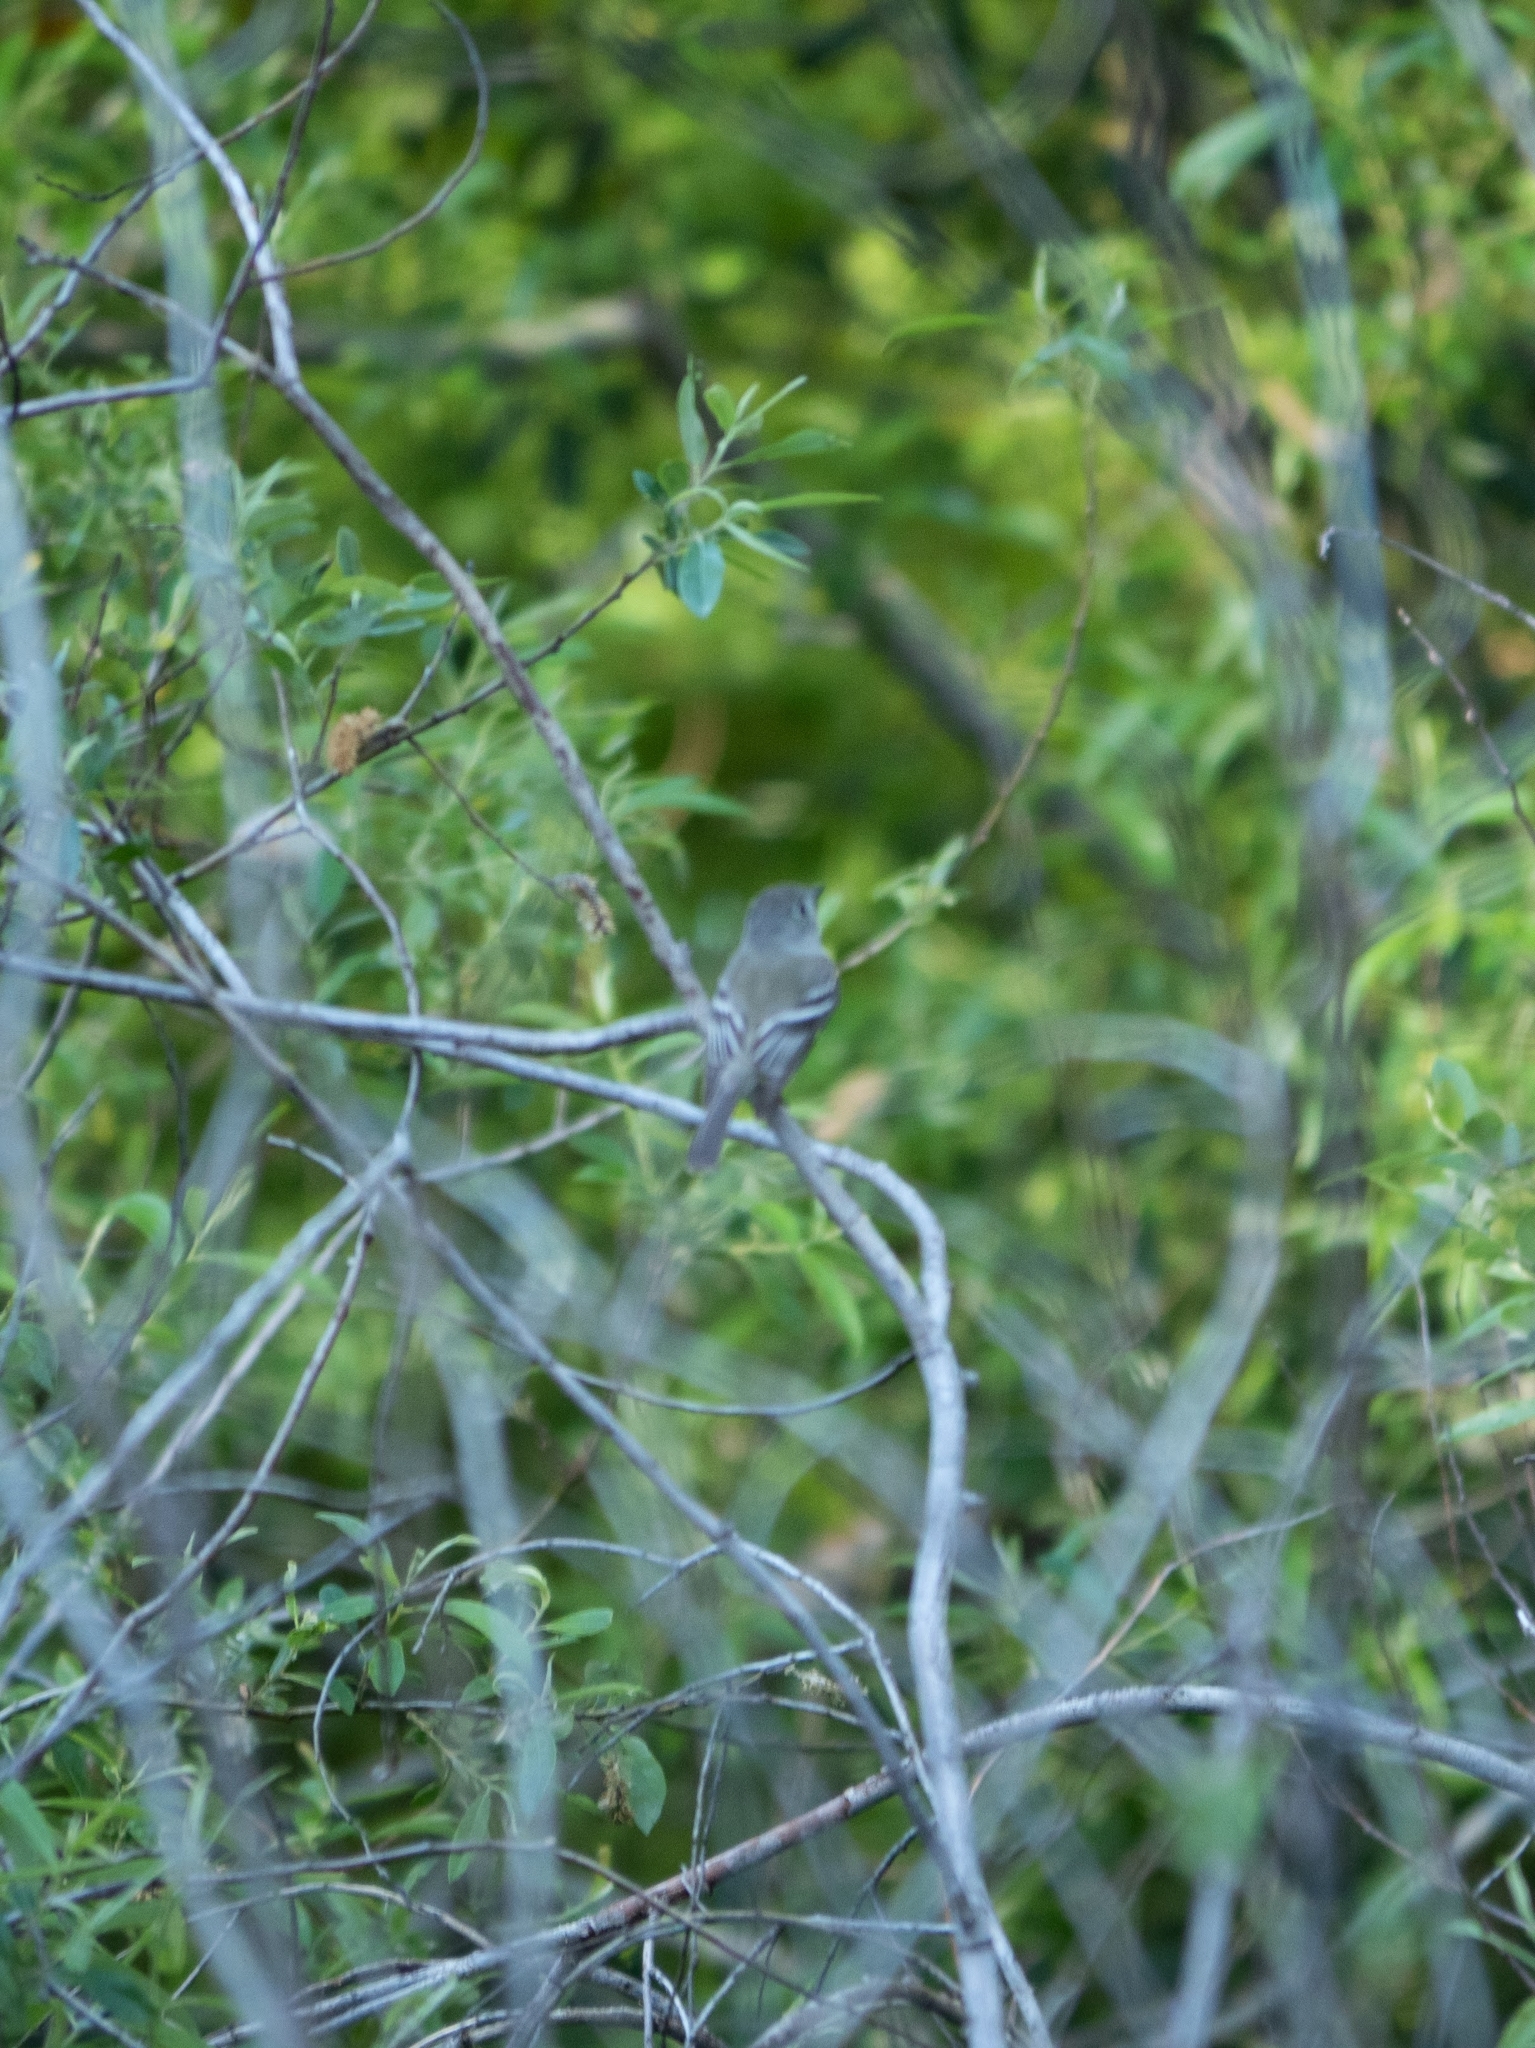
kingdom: Animalia
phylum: Chordata
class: Aves
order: Passeriformes
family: Tyrannidae
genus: Empidonax
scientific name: Empidonax hammondii
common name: Hammond's flycatcher
